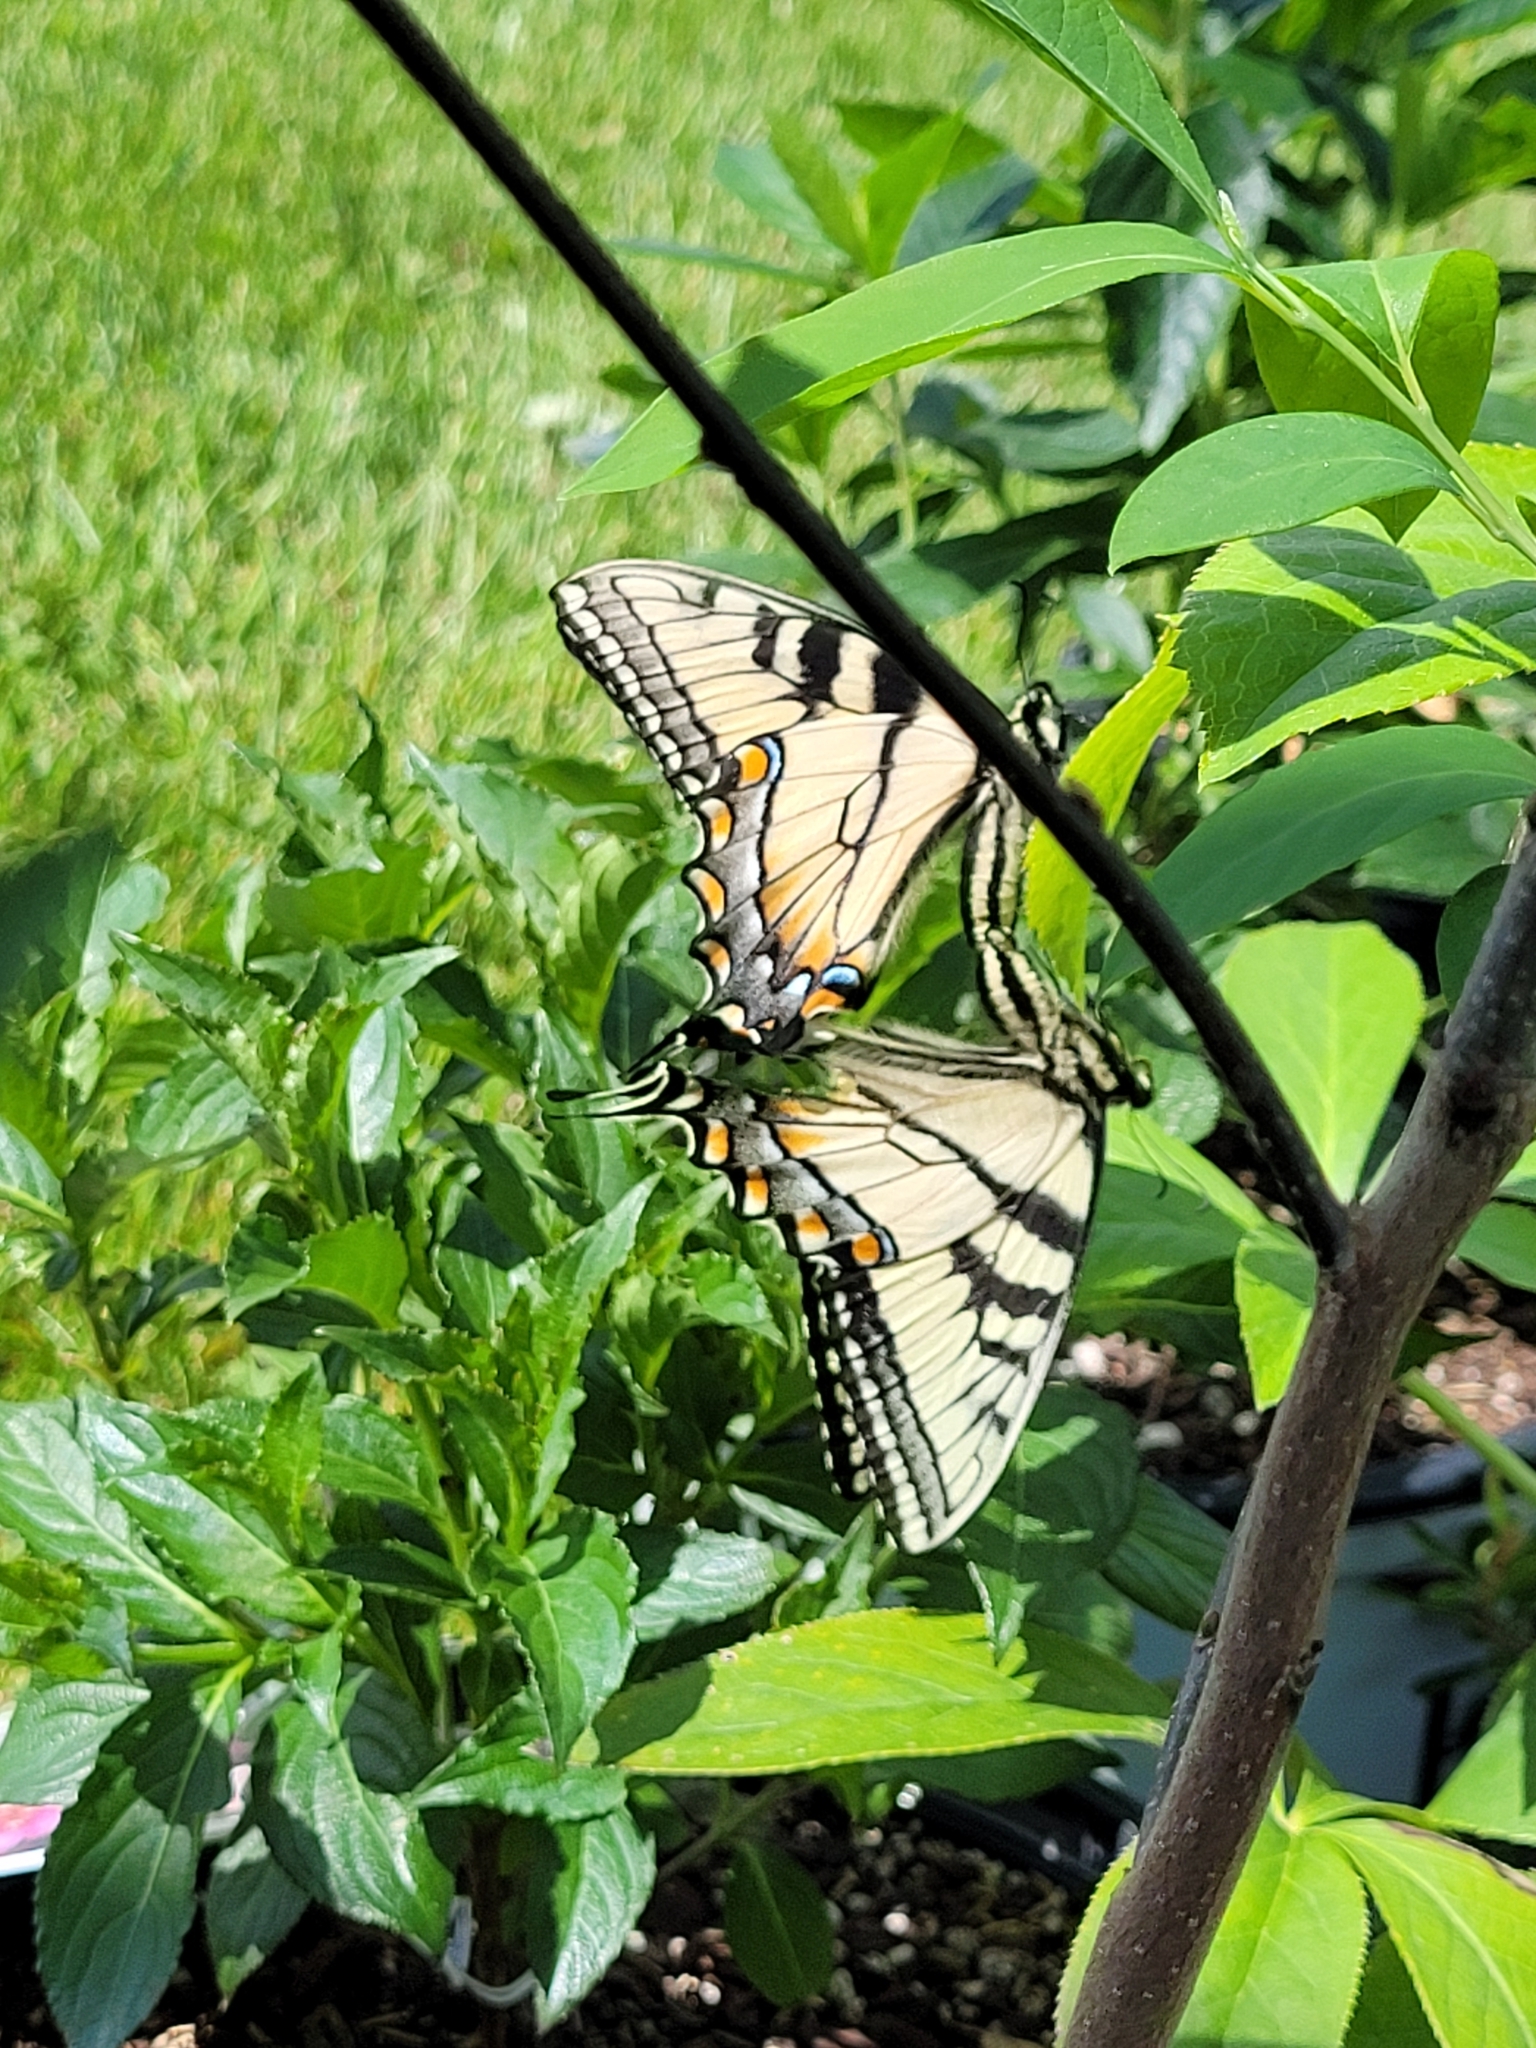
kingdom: Animalia
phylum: Arthropoda
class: Insecta
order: Lepidoptera
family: Papilionidae
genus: Papilio
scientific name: Papilio glaucus
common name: Tiger swallowtail
